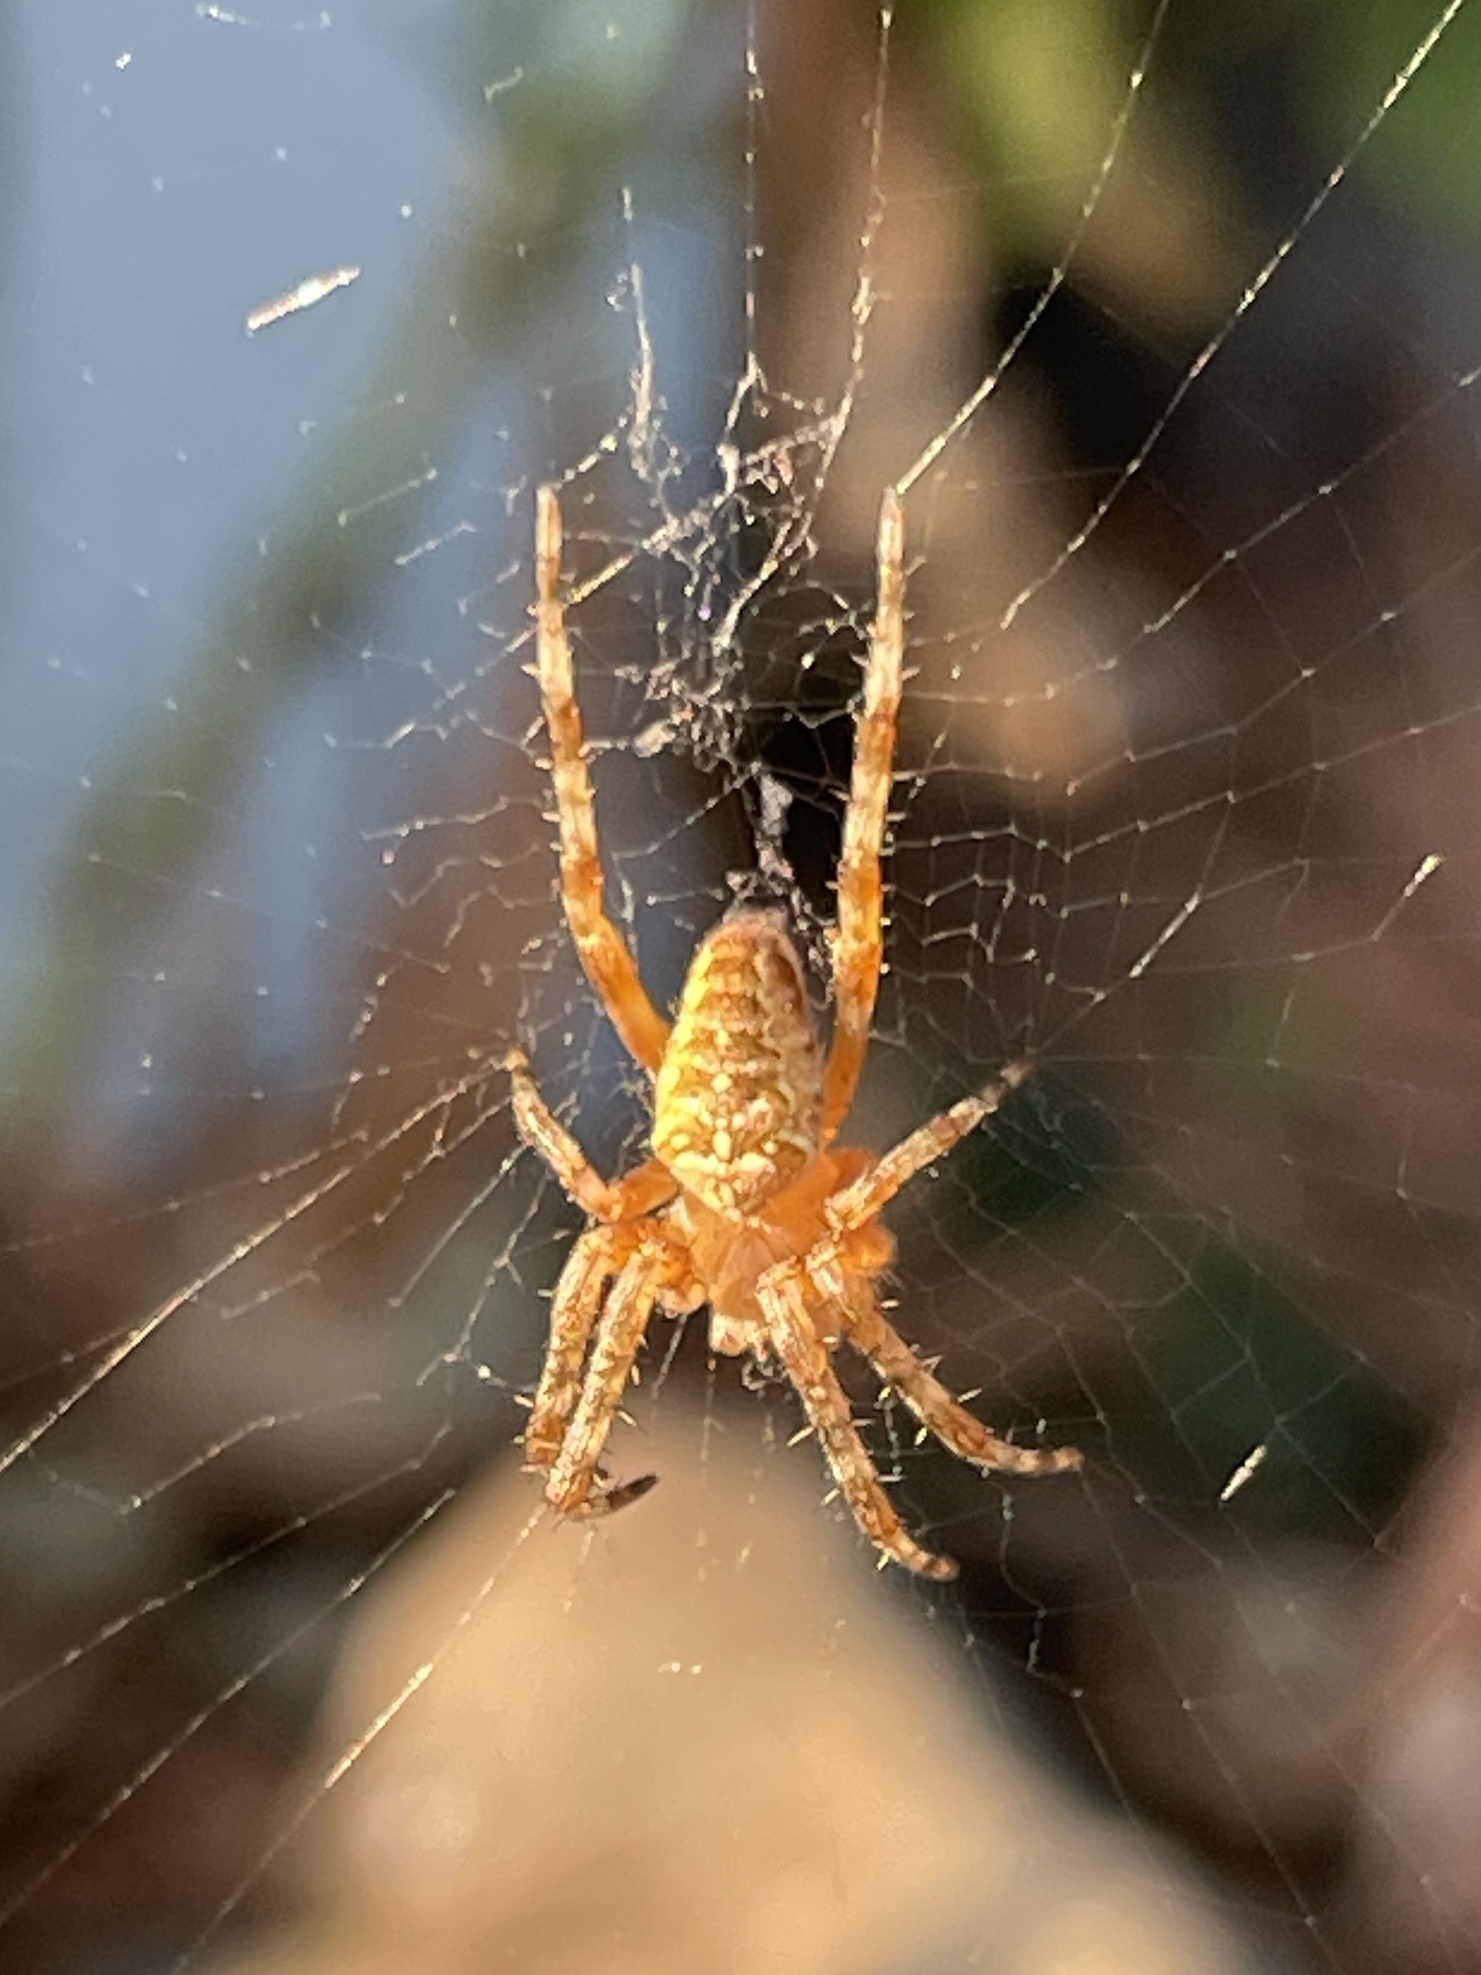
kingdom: Animalia
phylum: Arthropoda
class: Arachnida
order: Araneae
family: Araneidae
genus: Araneus
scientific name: Araneus diadematus
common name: Cross orbweaver
